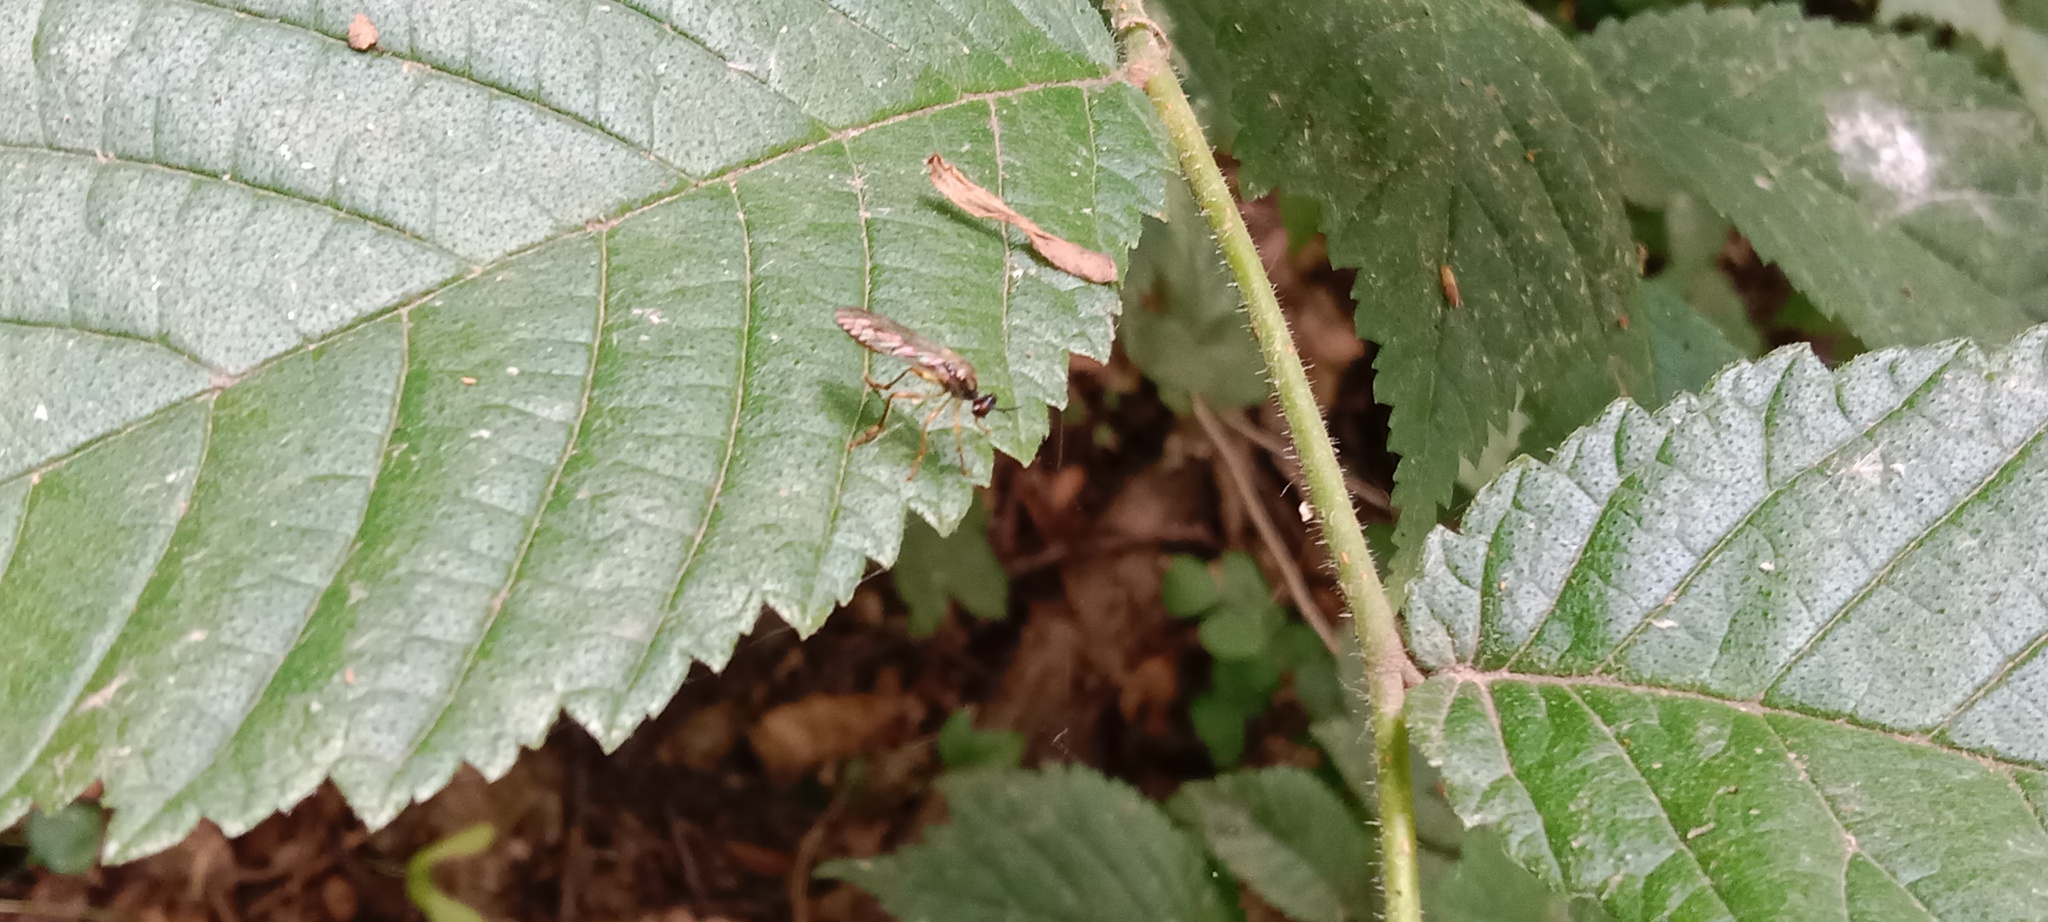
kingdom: Animalia
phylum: Arthropoda
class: Insecta
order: Diptera
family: Asilidae
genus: Dioctria
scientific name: Dioctria linearis
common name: Small yellow-legged robberfly
